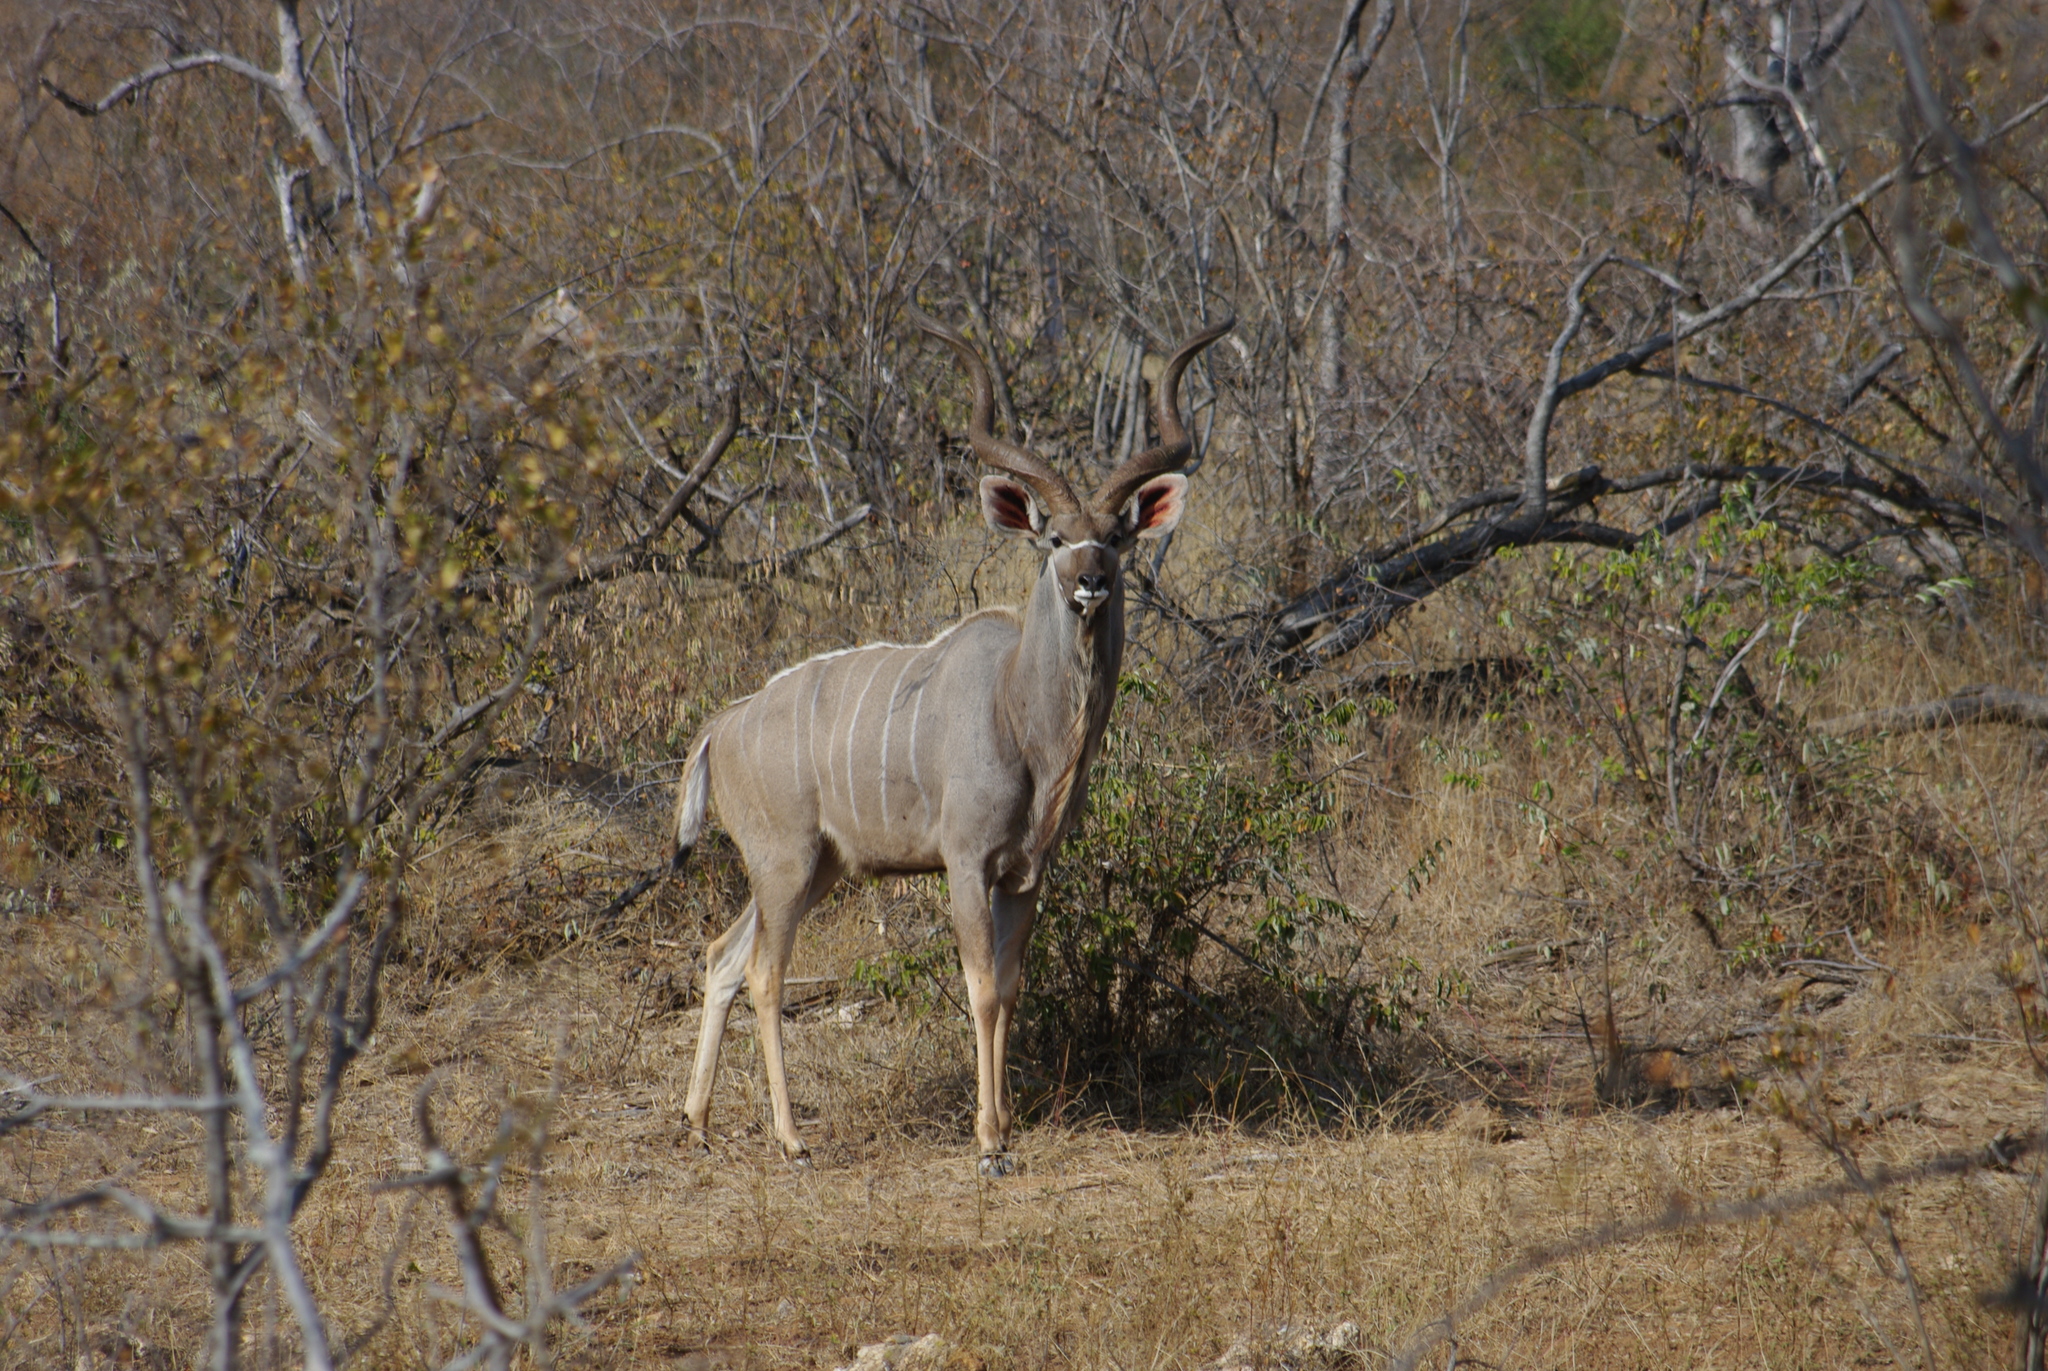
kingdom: Animalia
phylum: Chordata
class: Mammalia
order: Artiodactyla
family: Bovidae
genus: Tragelaphus
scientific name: Tragelaphus strepsiceros
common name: Greater kudu
